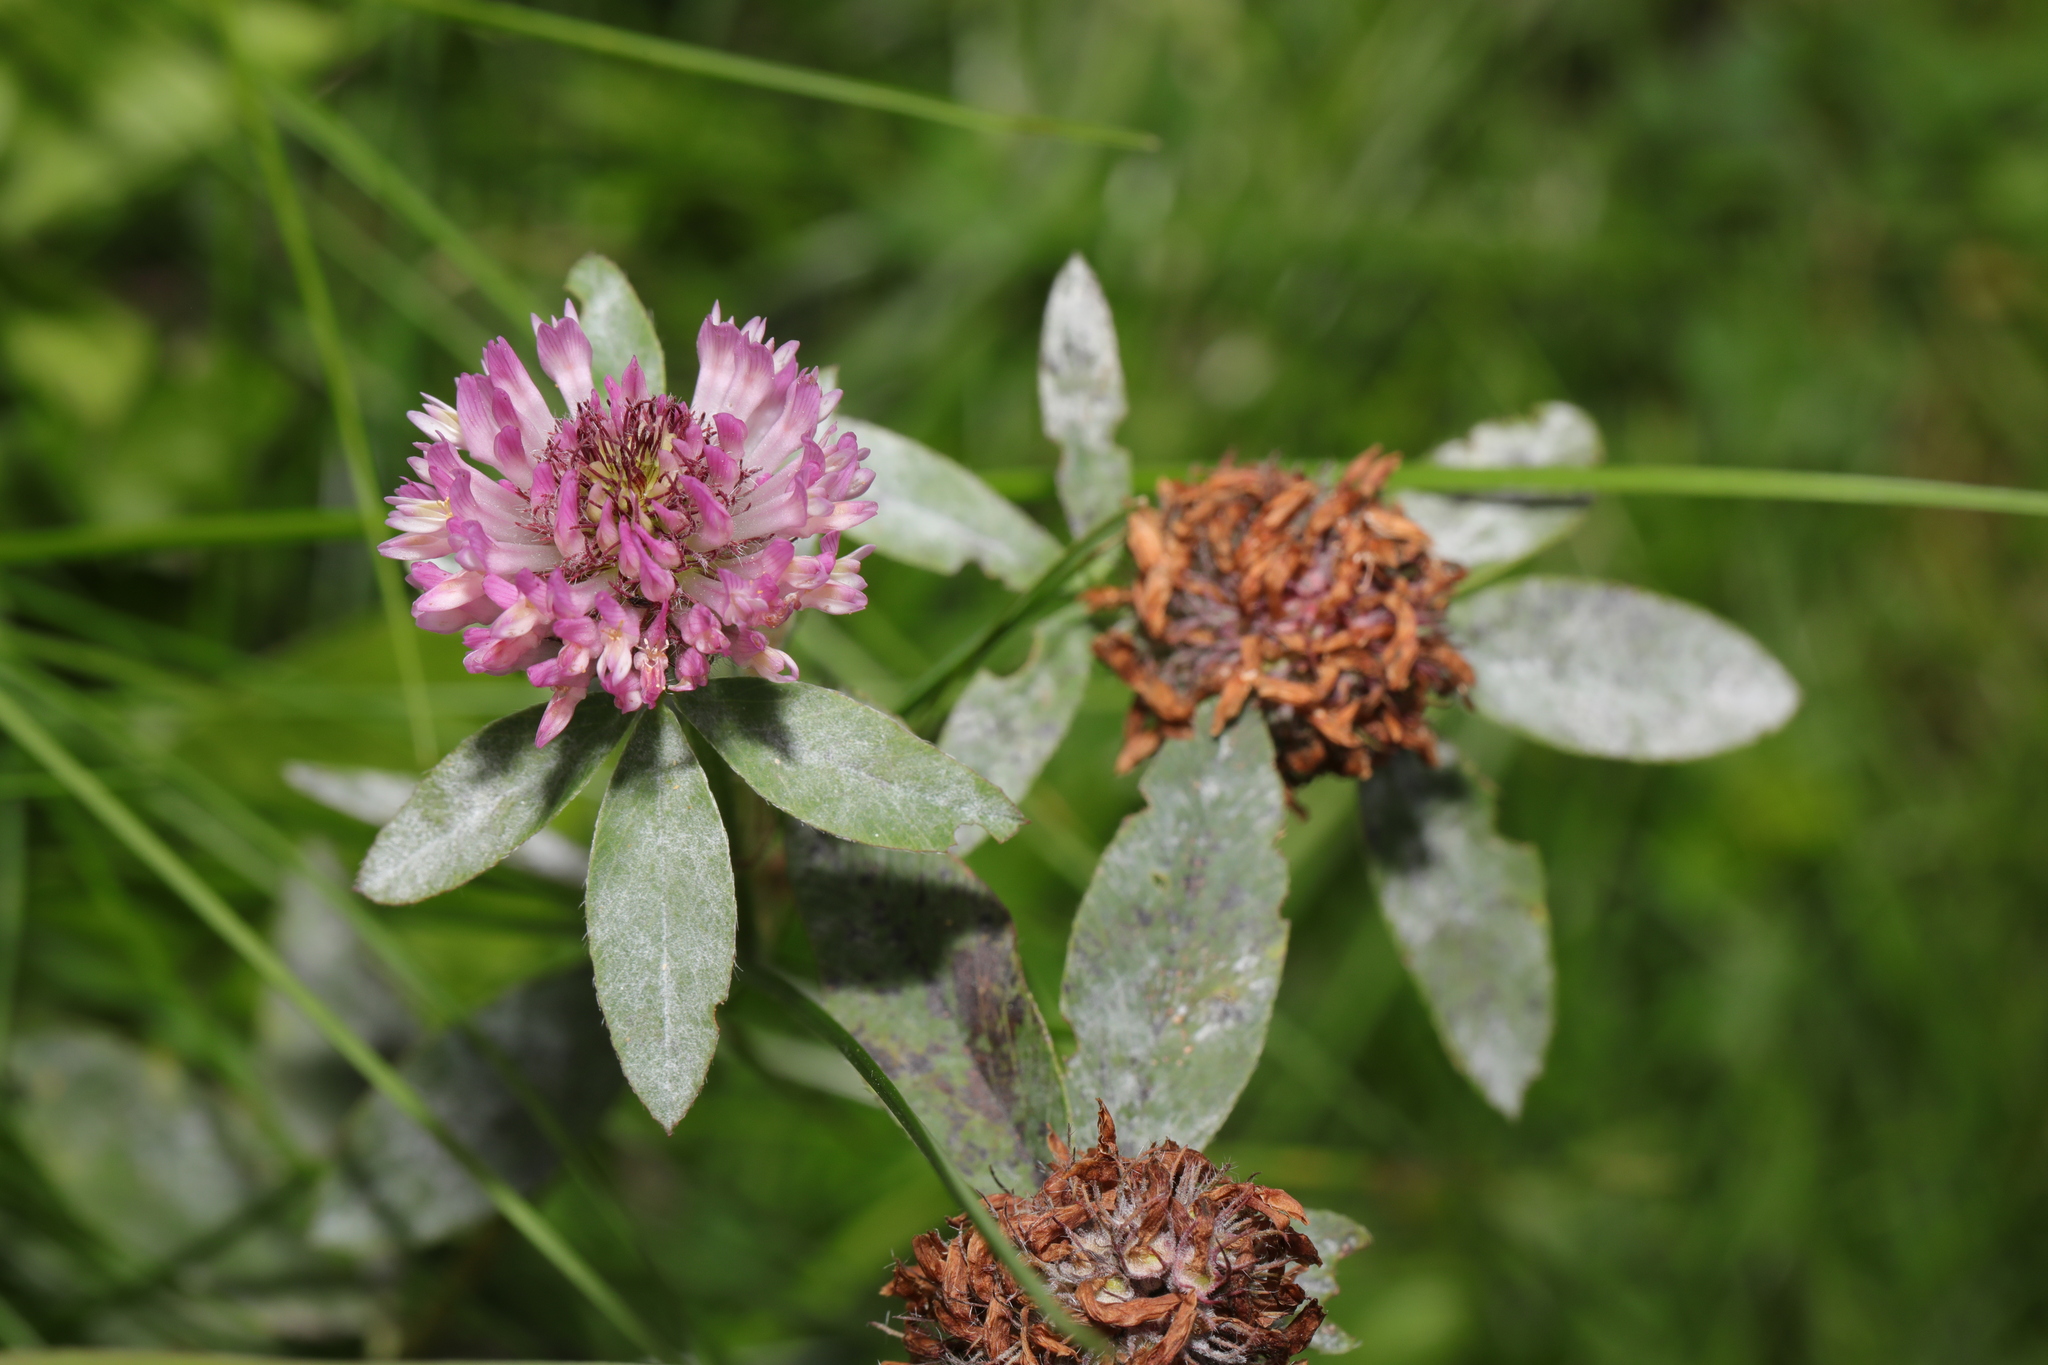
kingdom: Plantae
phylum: Tracheophyta
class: Magnoliopsida
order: Fabales
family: Fabaceae
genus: Trifolium
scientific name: Trifolium pratense
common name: Red clover
